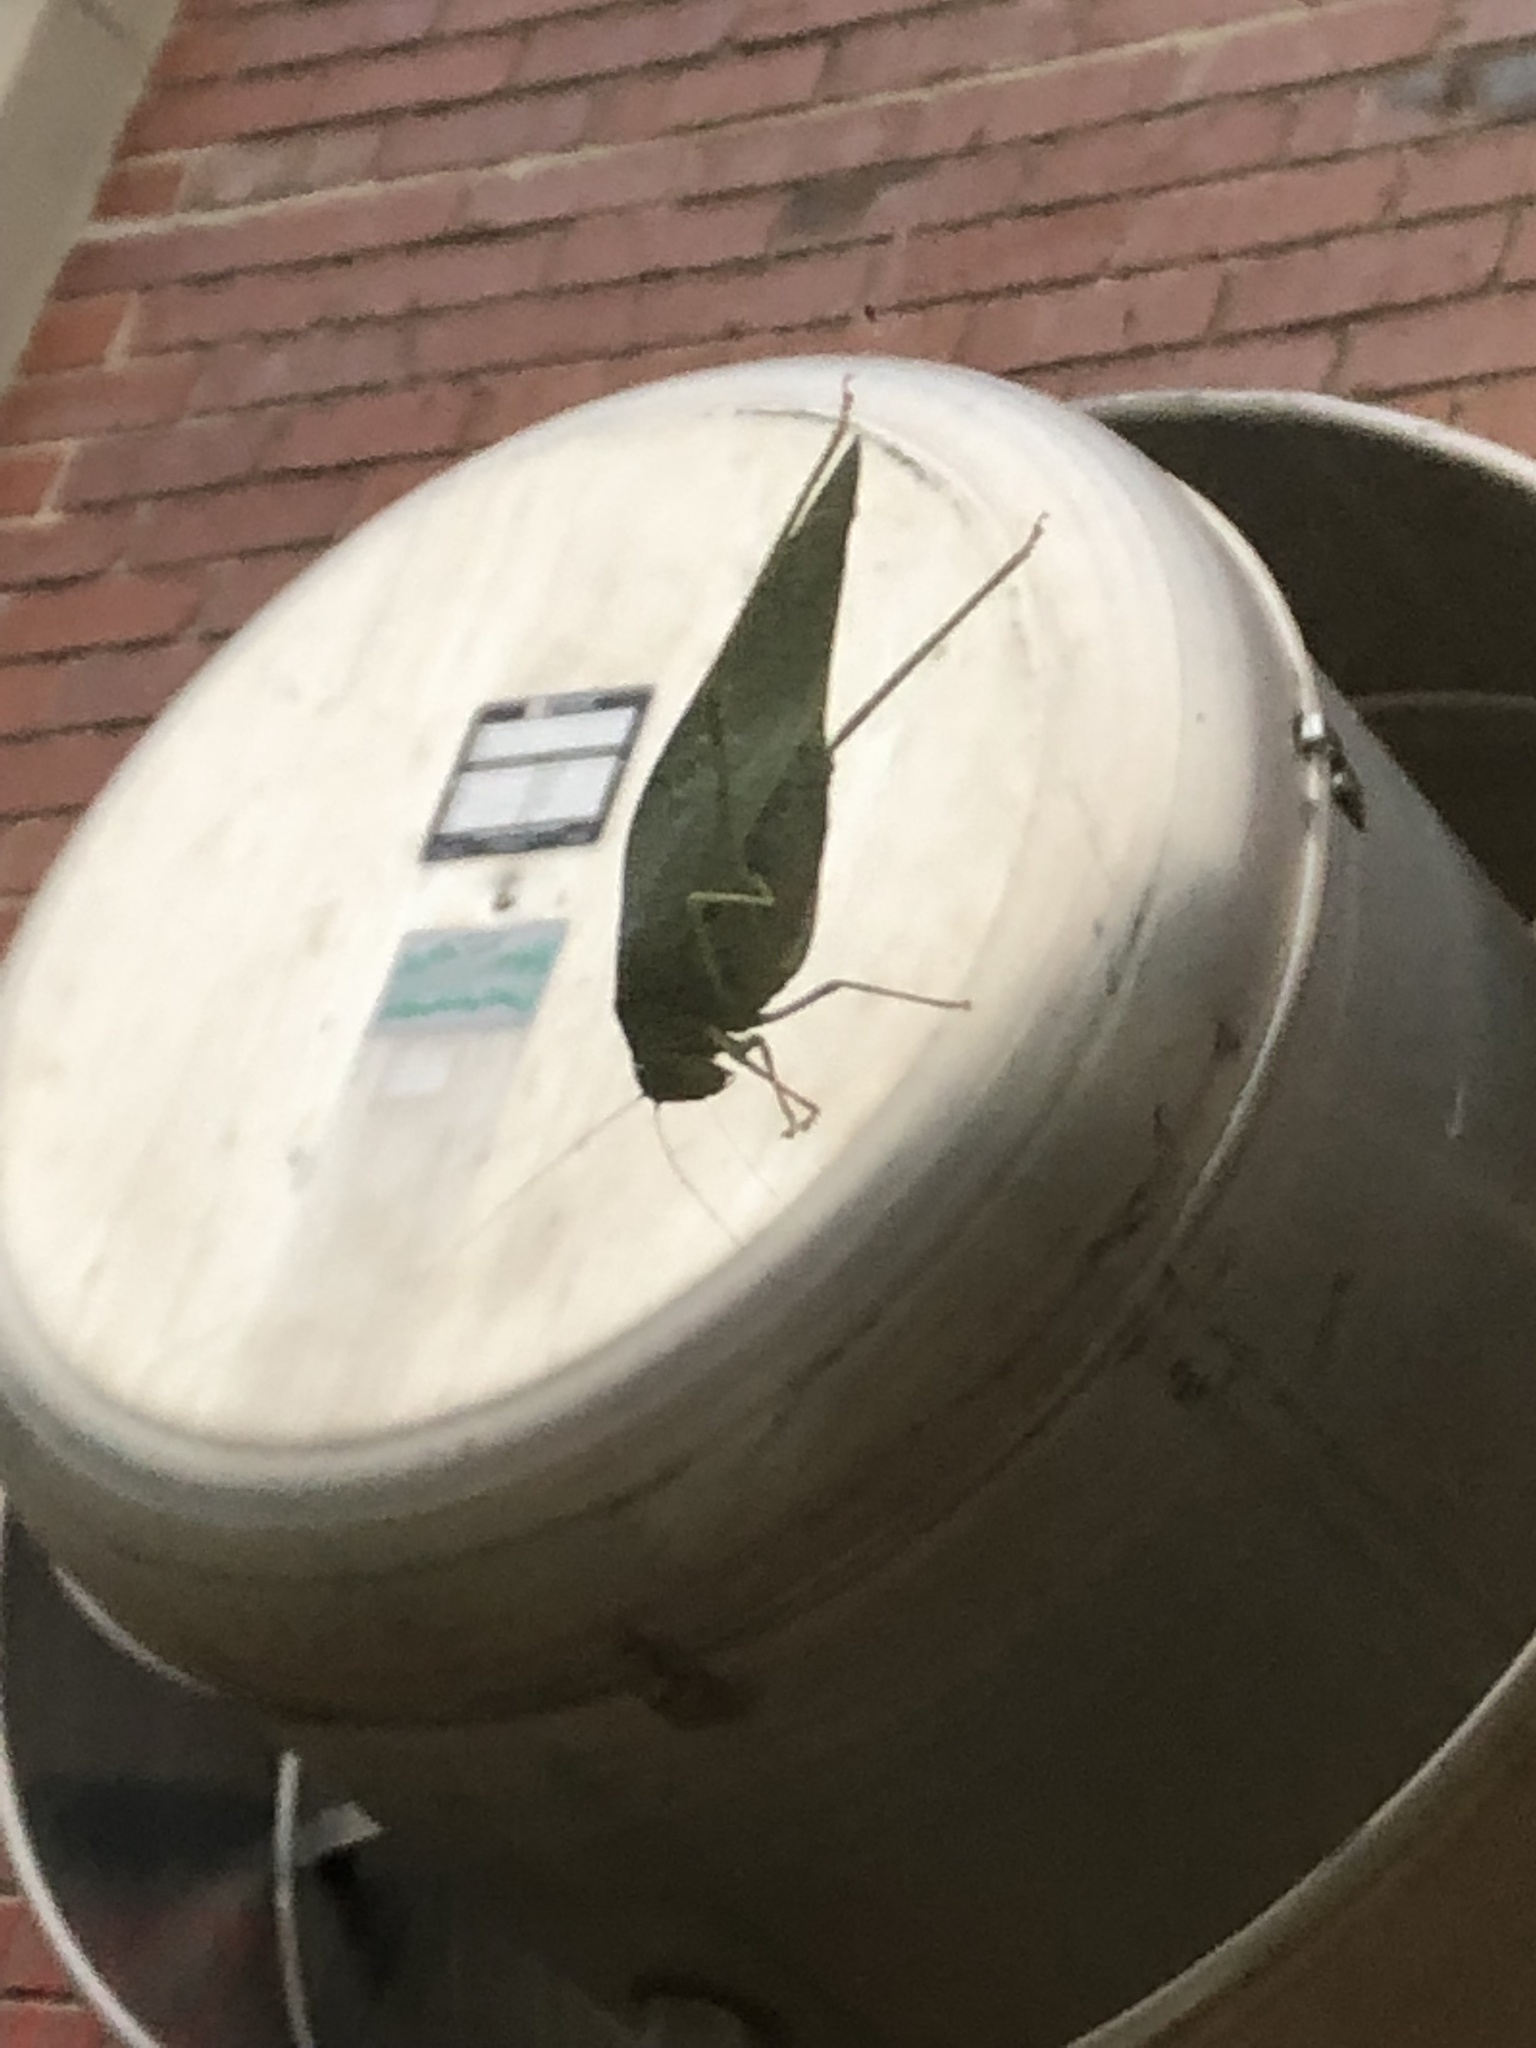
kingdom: Animalia
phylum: Arthropoda
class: Insecta
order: Orthoptera
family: Tettigoniidae
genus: Microcentrum
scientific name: Microcentrum rhombifolium
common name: Broad-winged katydid
